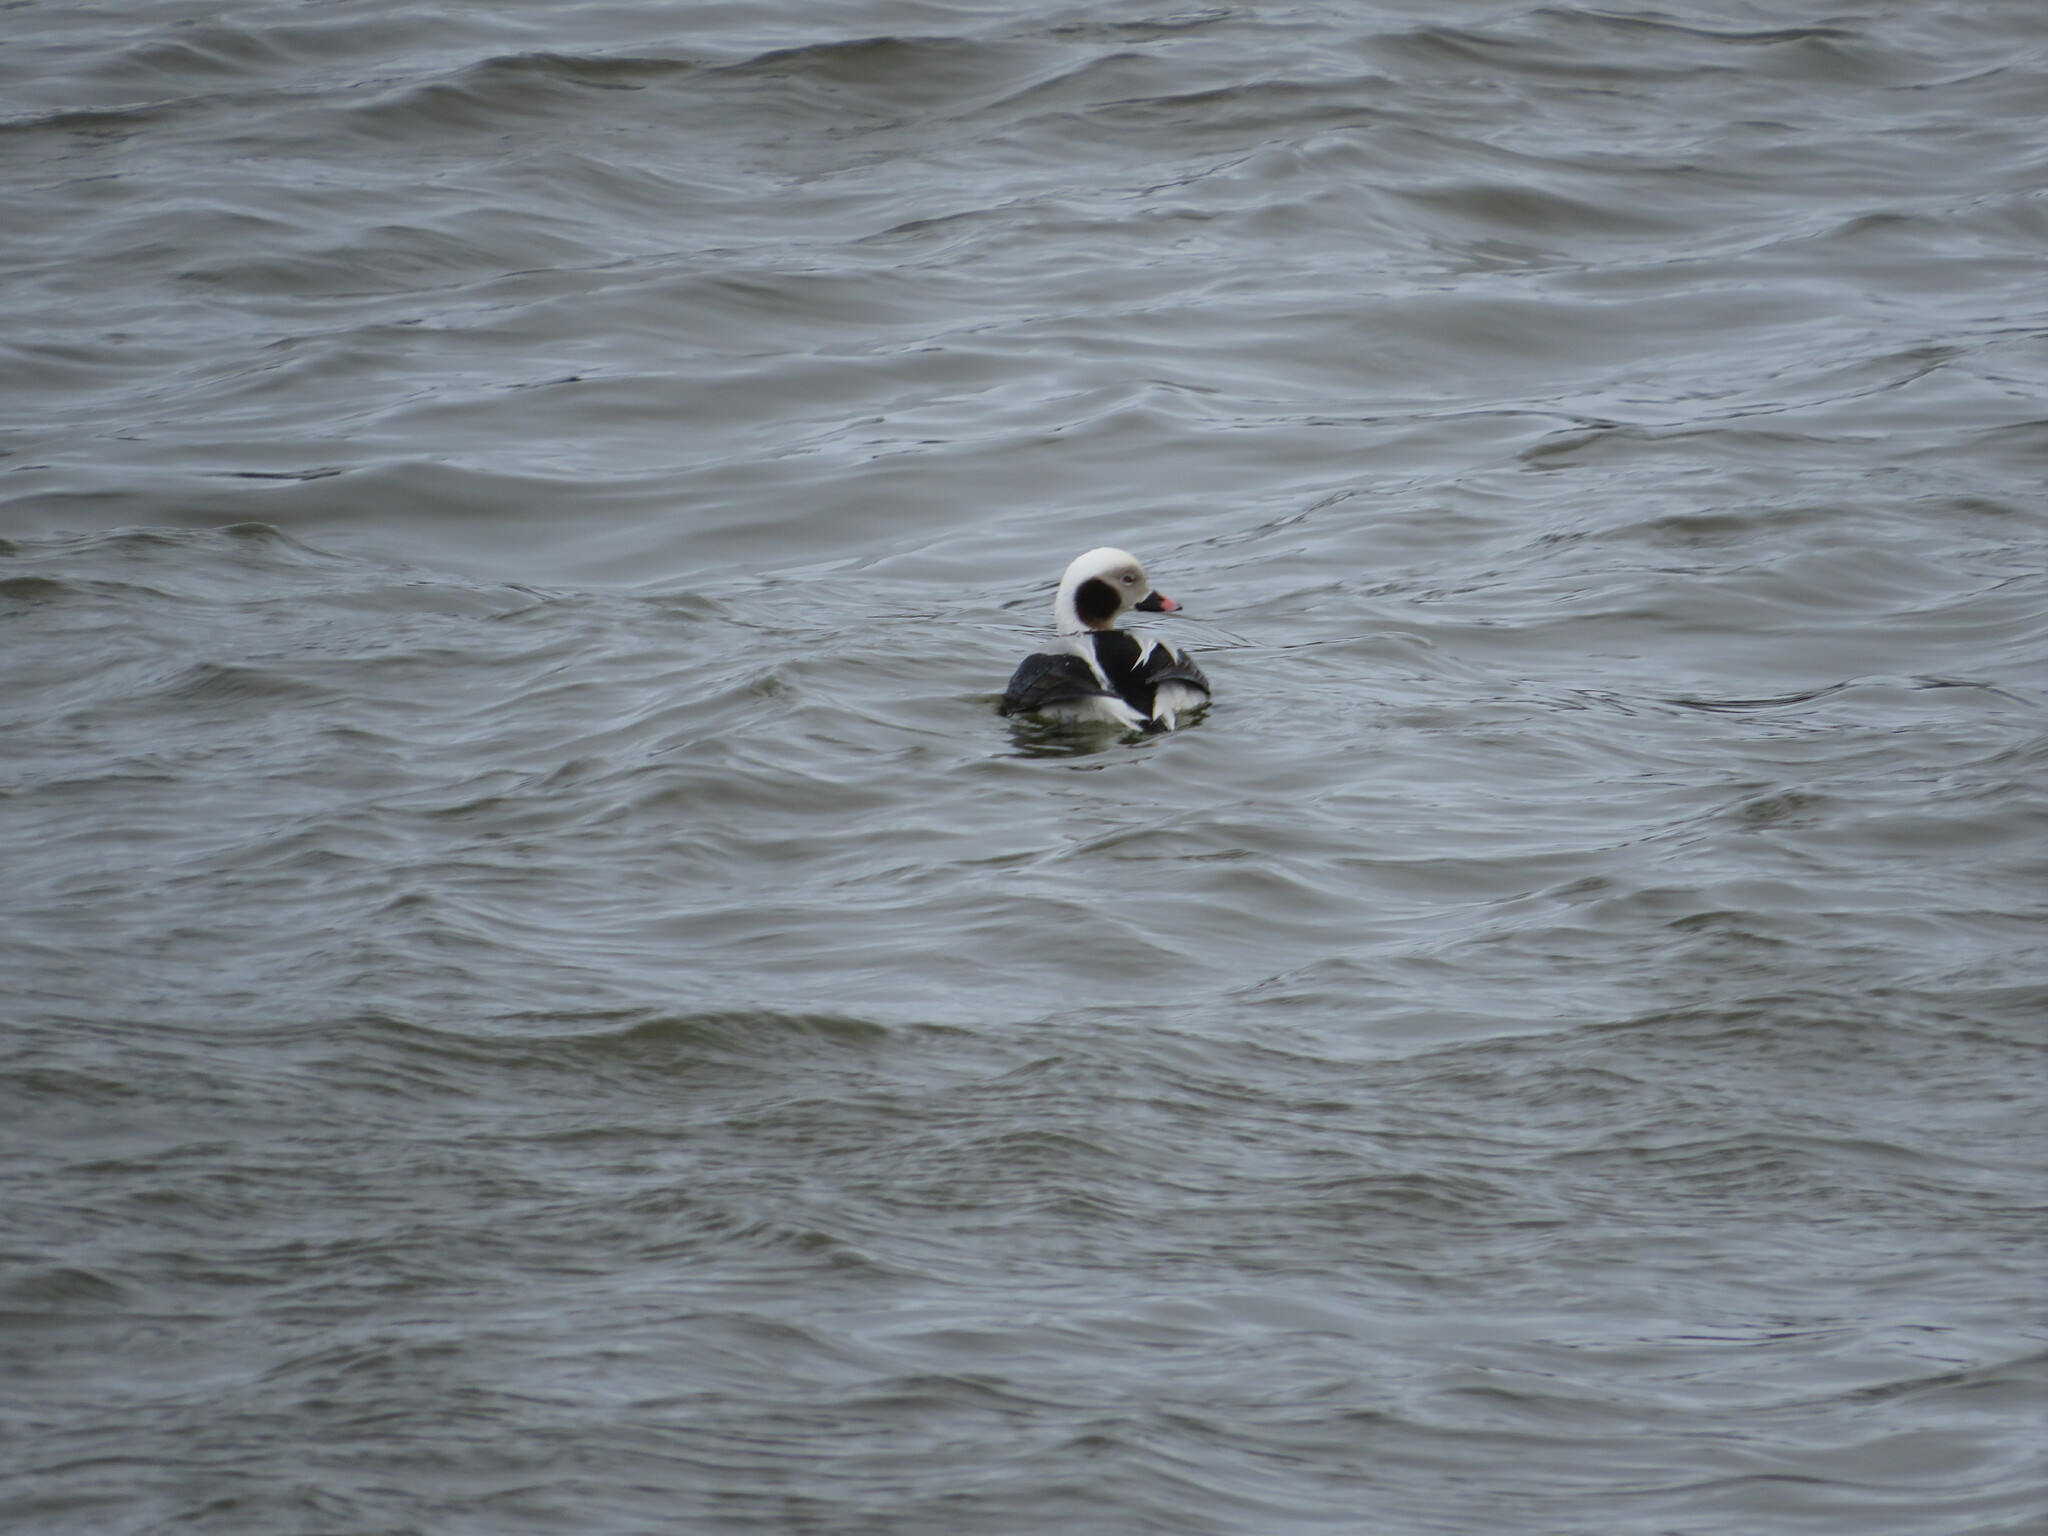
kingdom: Animalia
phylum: Chordata
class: Aves
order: Anseriformes
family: Anatidae
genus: Clangula
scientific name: Clangula hyemalis
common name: Long-tailed duck
